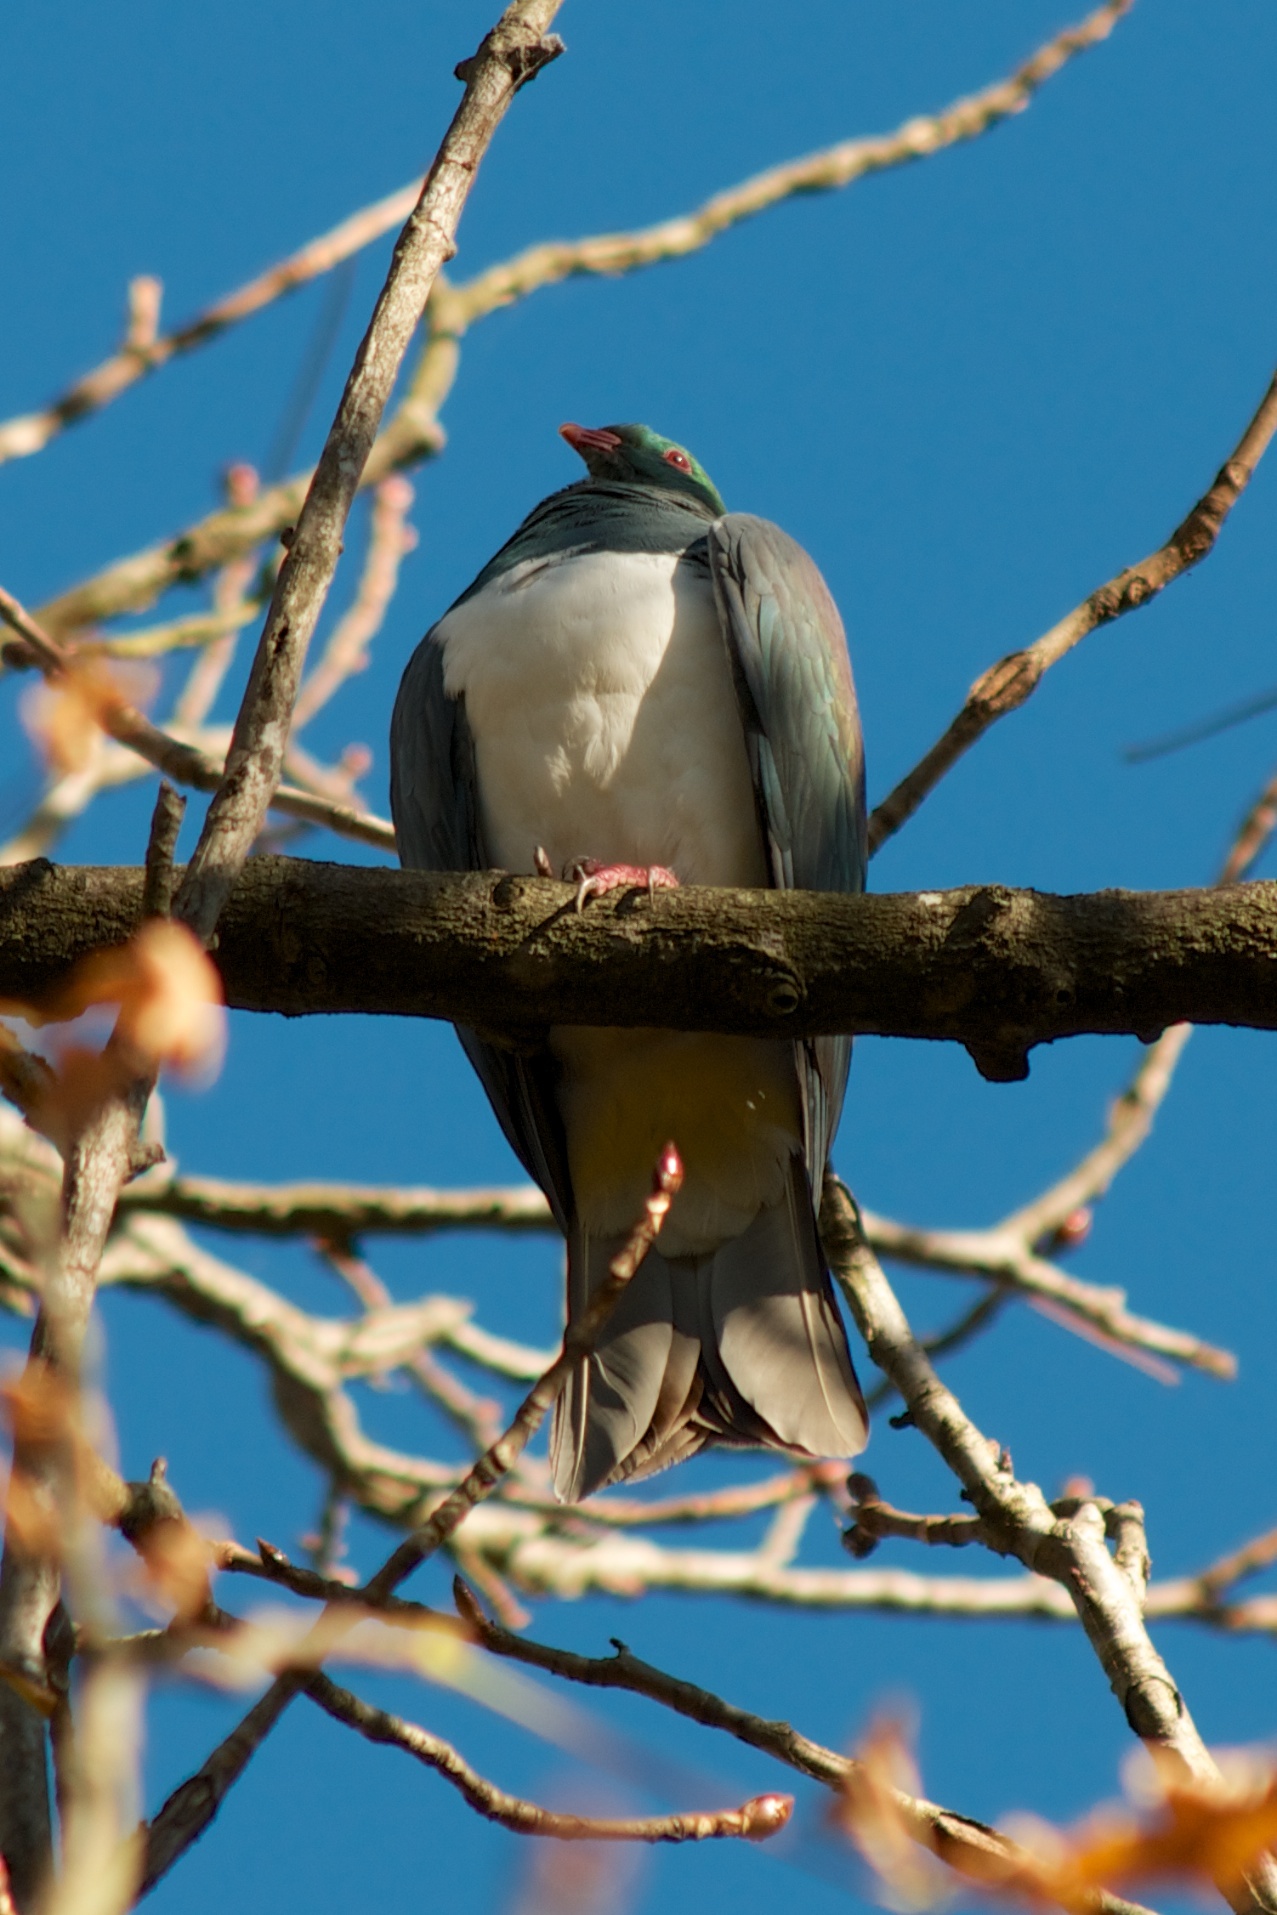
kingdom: Animalia
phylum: Chordata
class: Aves
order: Columbiformes
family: Columbidae
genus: Hemiphaga
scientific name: Hemiphaga novaeseelandiae
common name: New zealand pigeon
